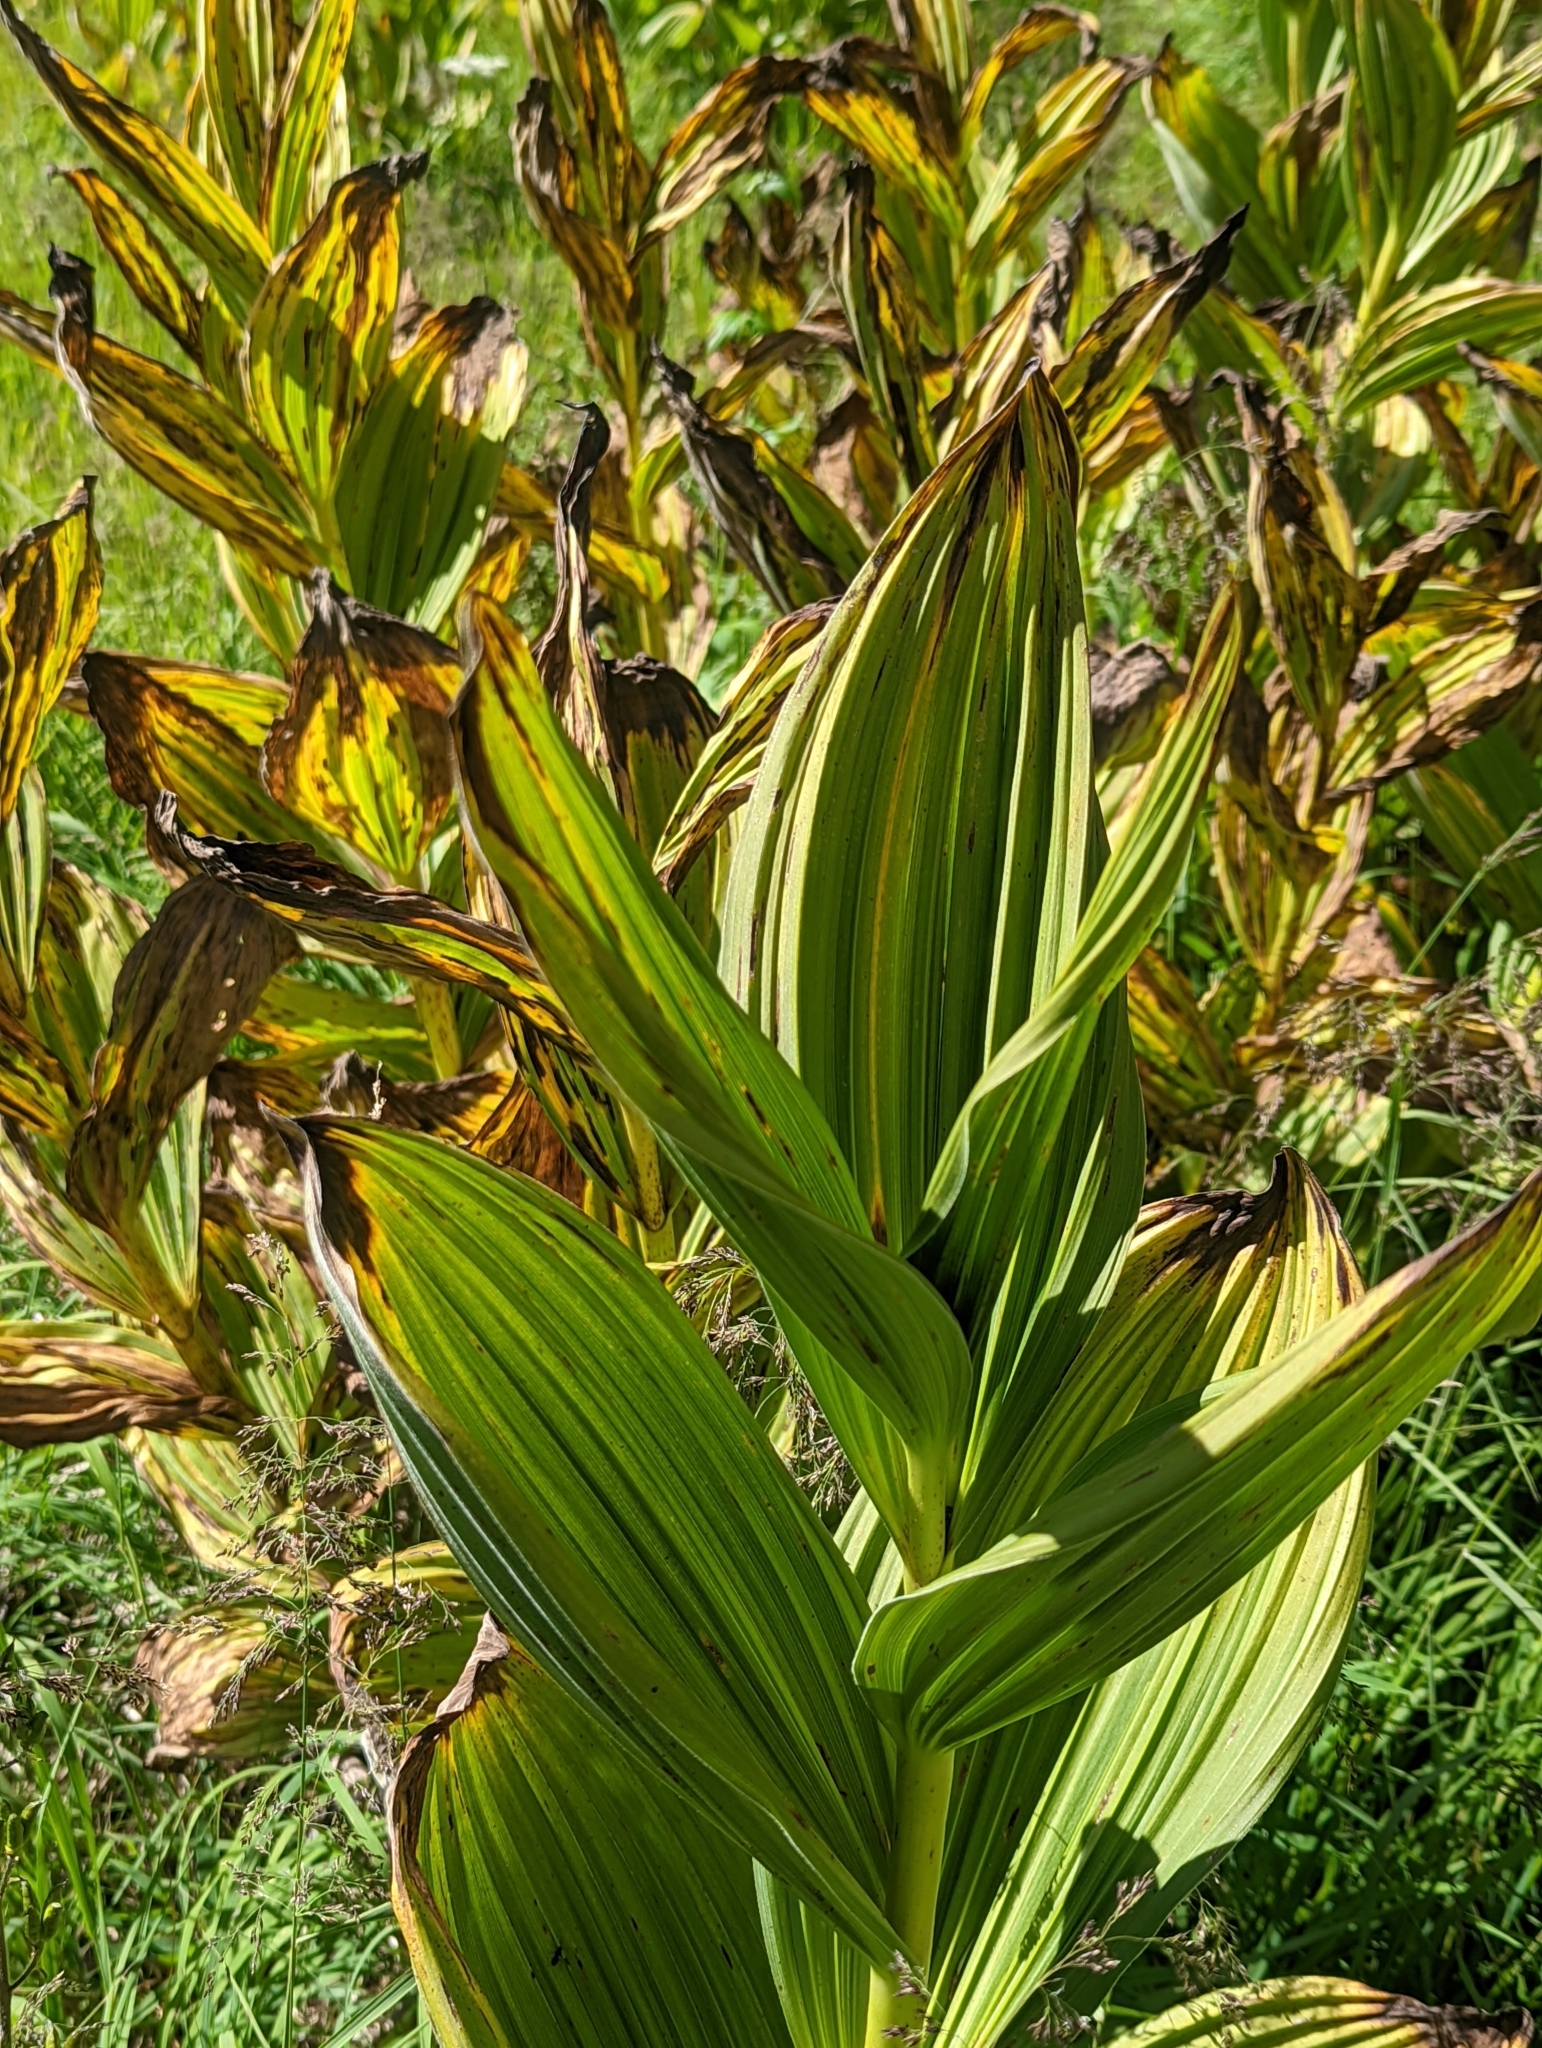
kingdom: Plantae
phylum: Tracheophyta
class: Liliopsida
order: Liliales
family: Melanthiaceae
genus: Veratrum
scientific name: Veratrum californicum
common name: California veratrum
